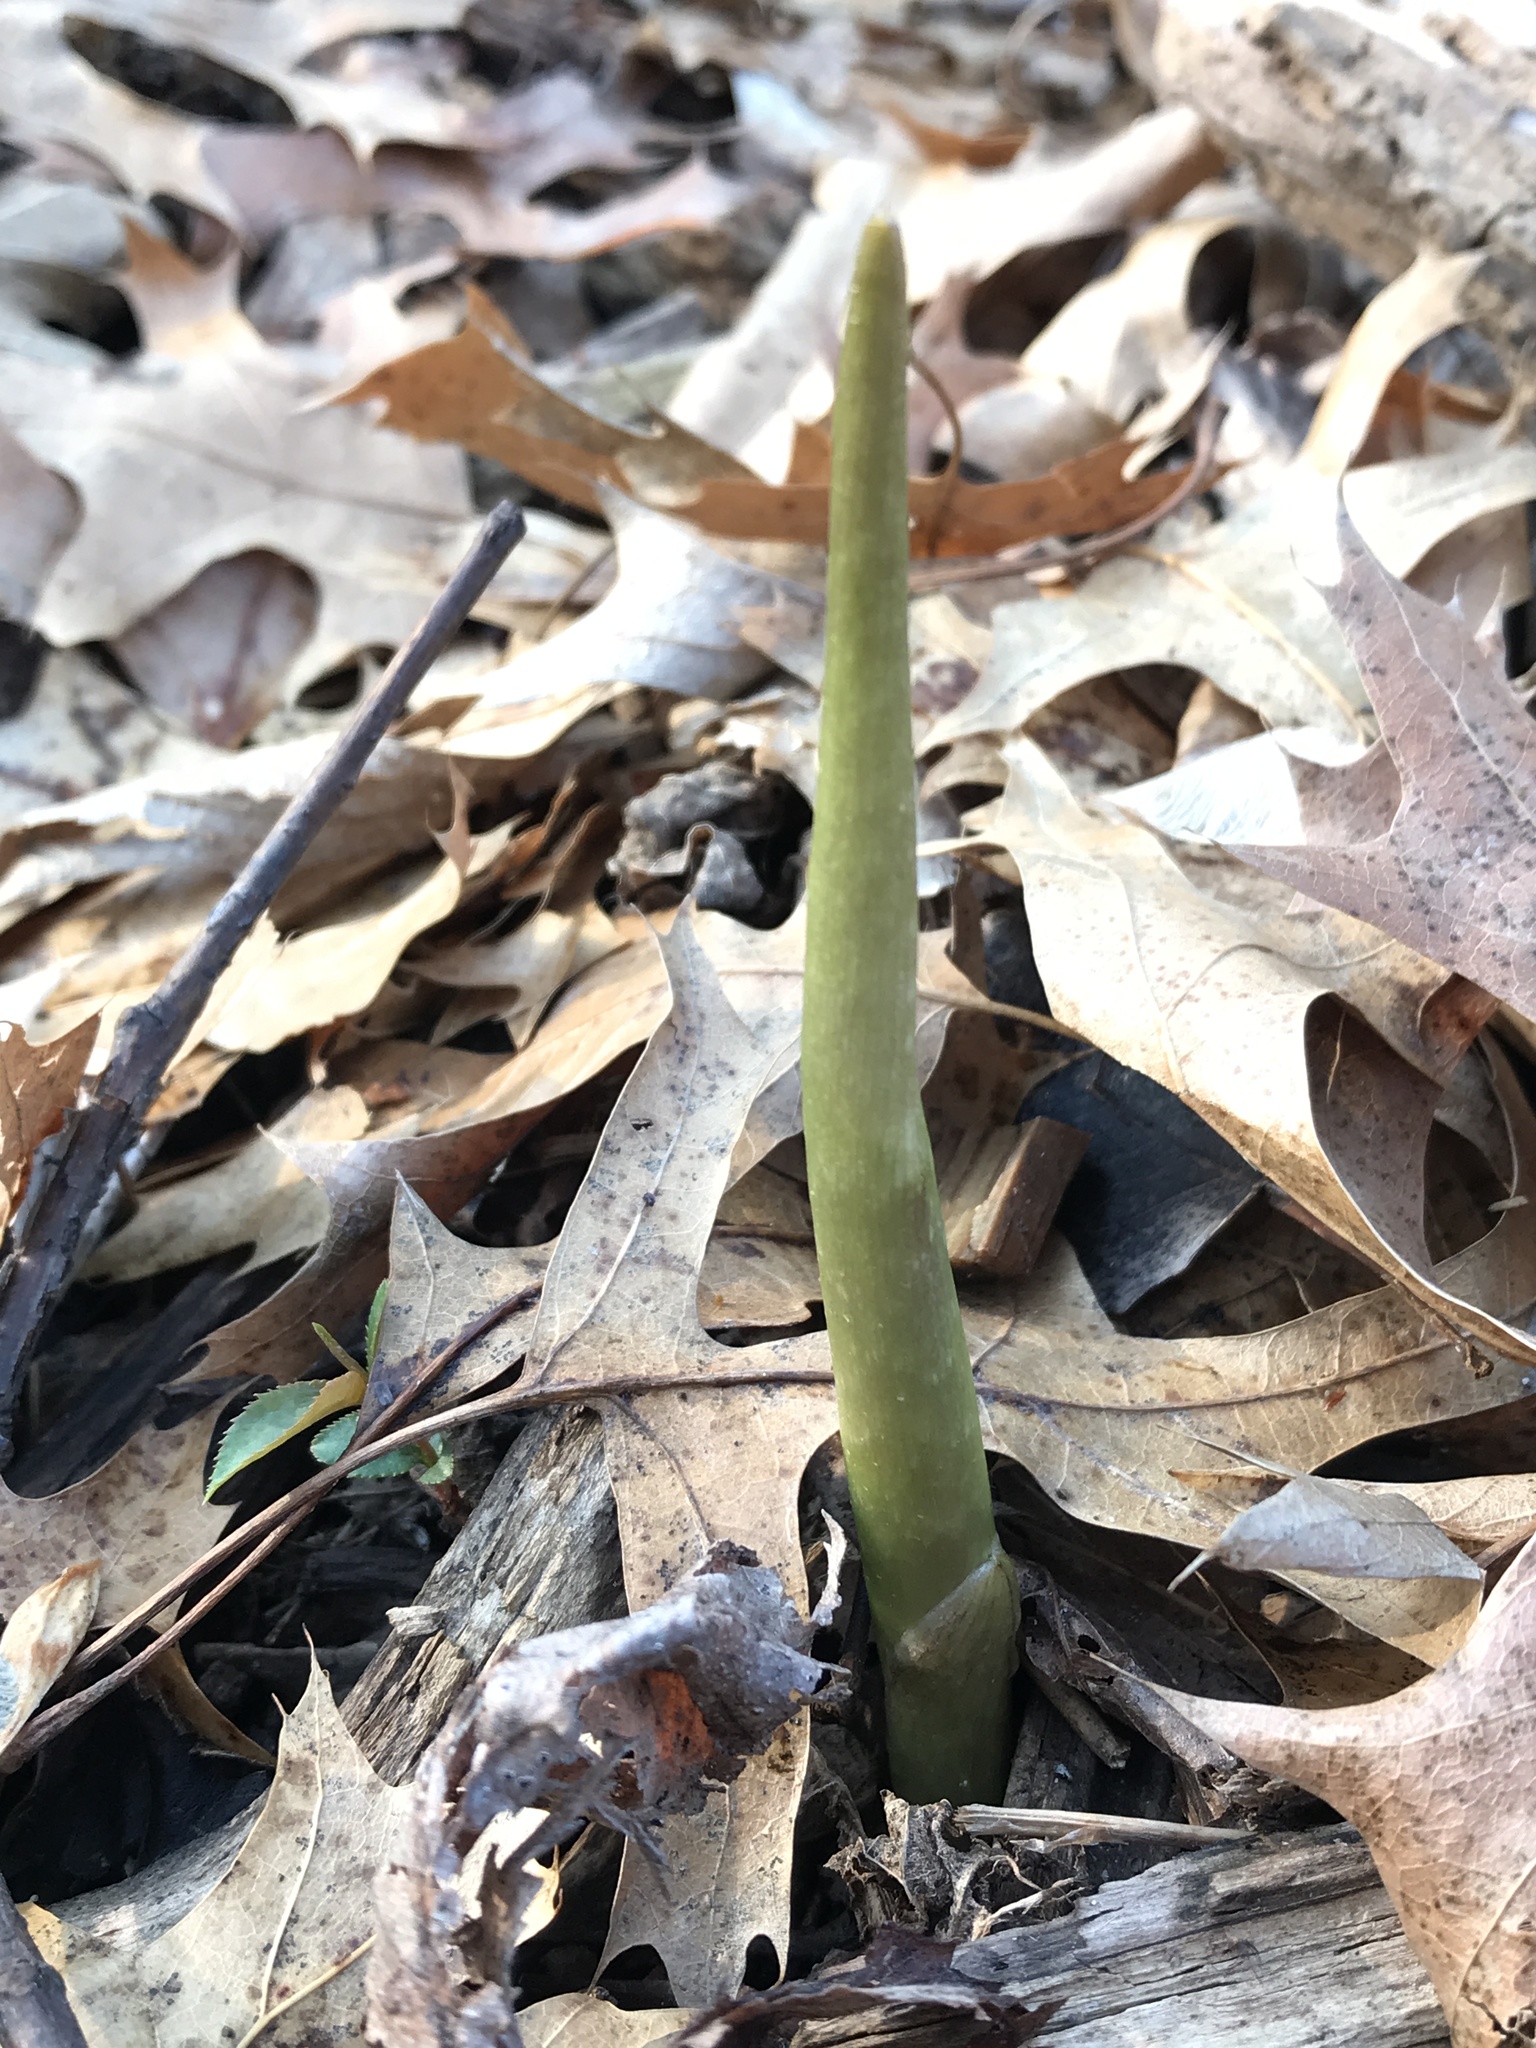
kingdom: Plantae
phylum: Tracheophyta
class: Liliopsida
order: Alismatales
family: Araceae
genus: Arisaema
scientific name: Arisaema triphyllum
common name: Jack-in-the-pulpit
